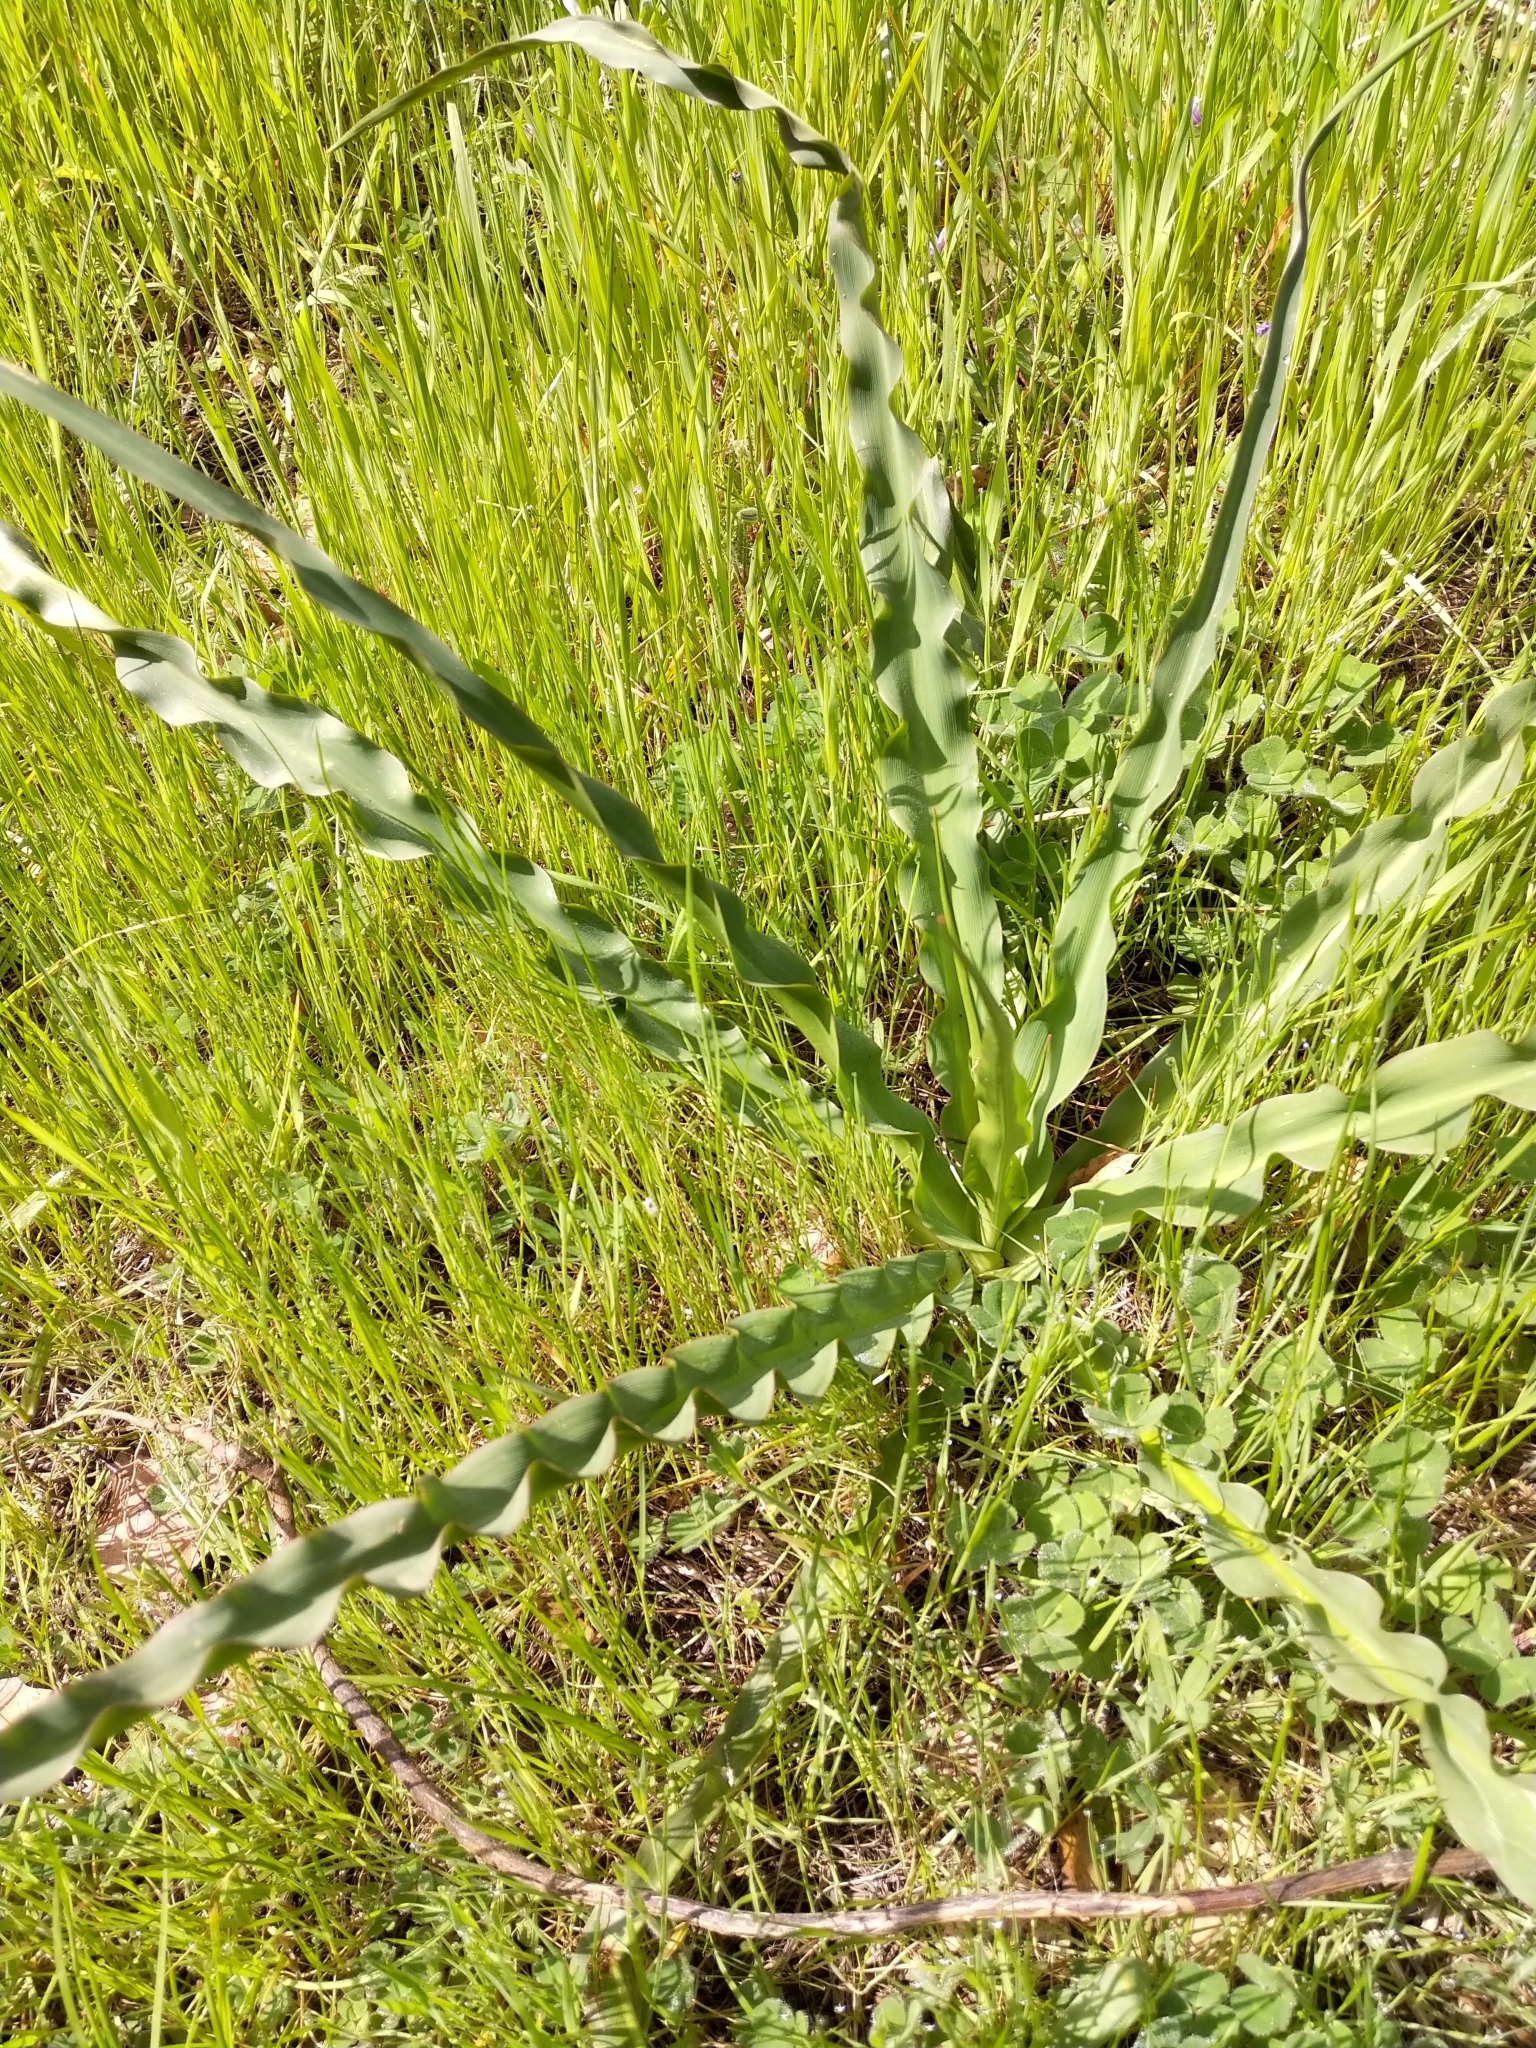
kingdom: Plantae
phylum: Tracheophyta
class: Liliopsida
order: Asparagales
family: Asparagaceae
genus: Chlorogalum
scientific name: Chlorogalum pomeridianum
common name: Amole
